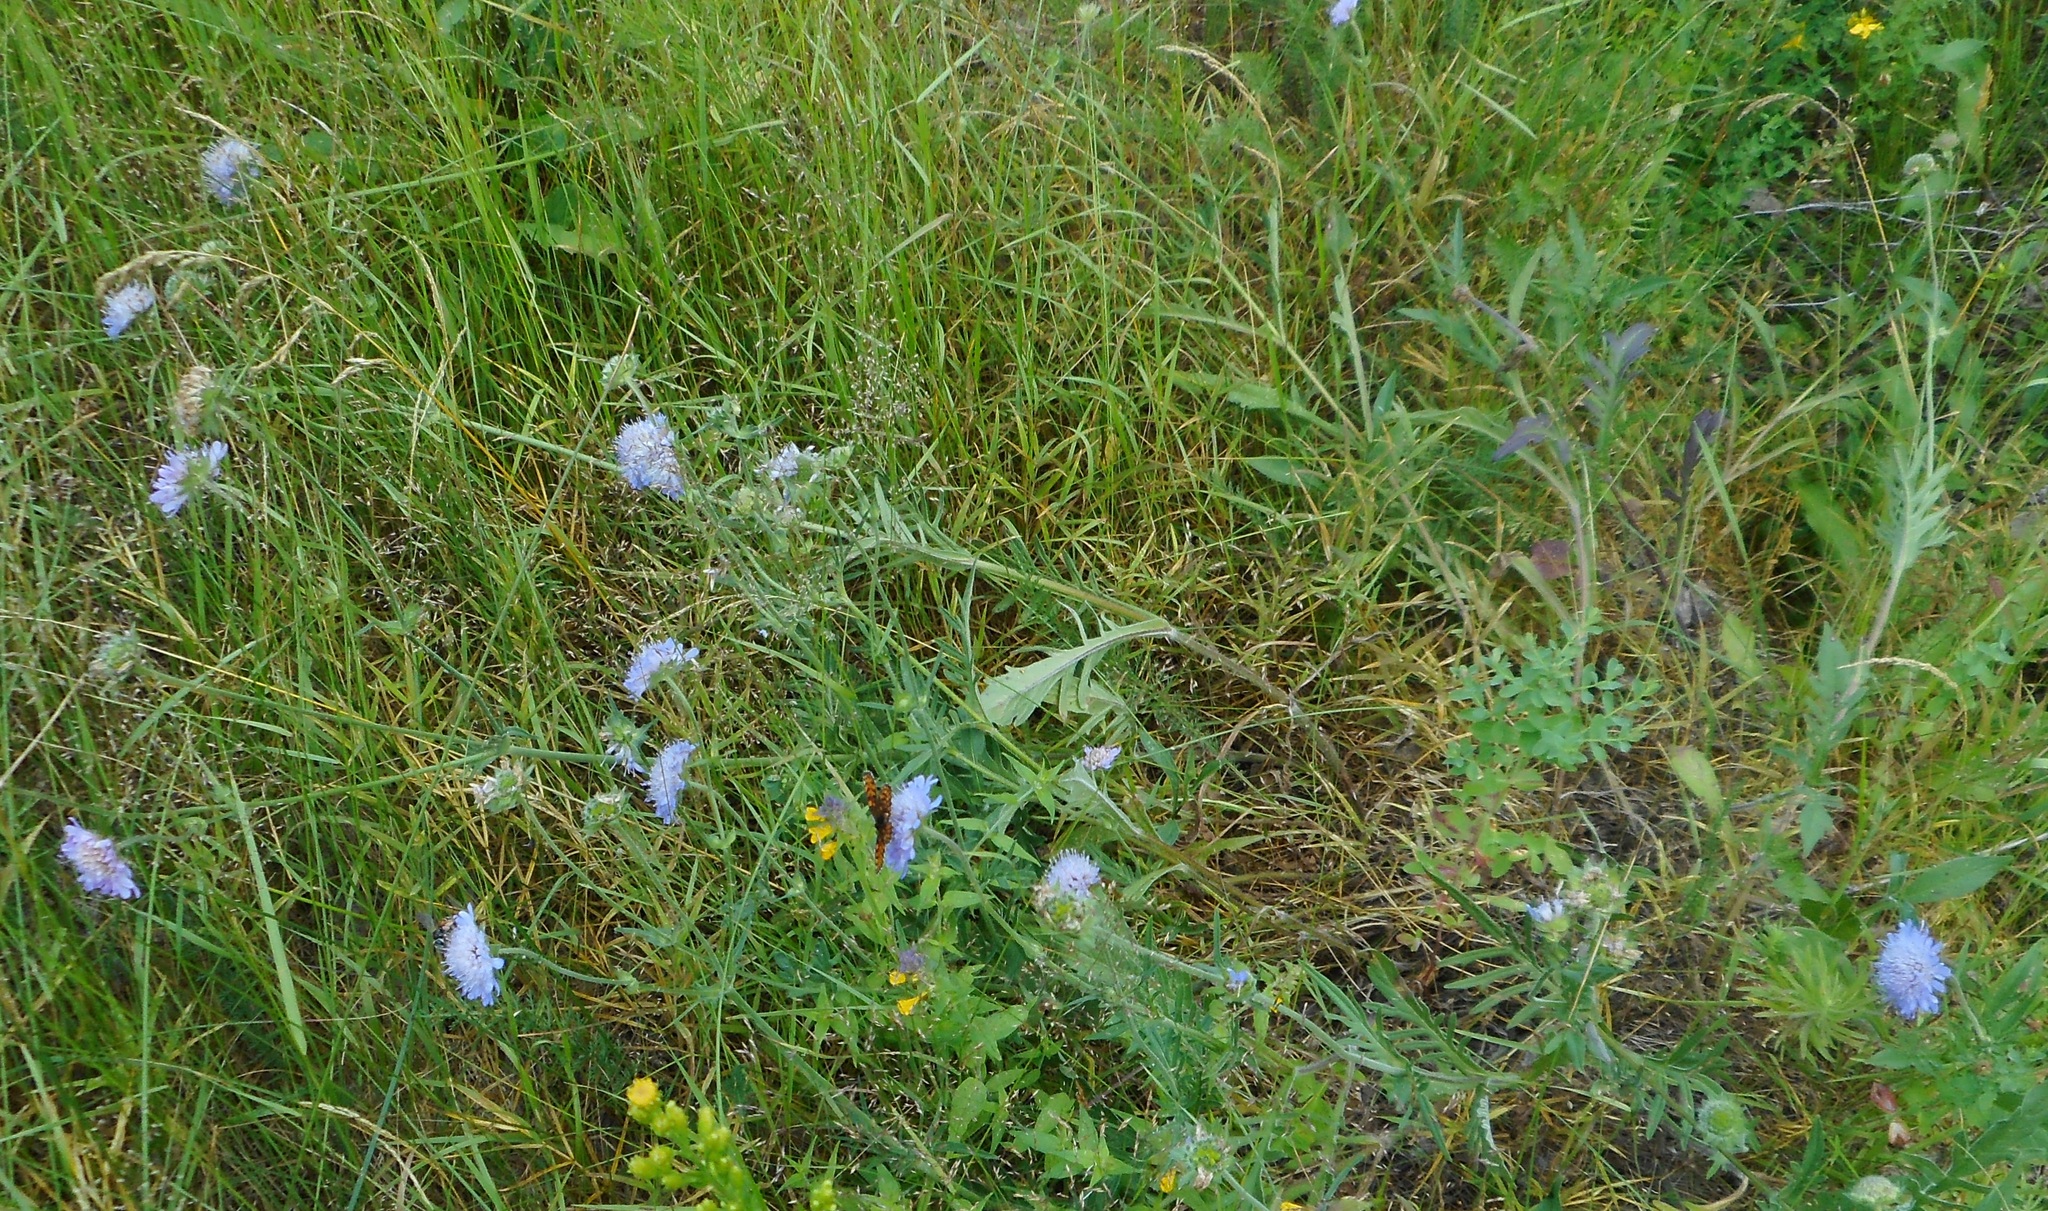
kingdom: Plantae
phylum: Tracheophyta
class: Magnoliopsida
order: Dipsacales
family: Caprifoliaceae
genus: Knautia
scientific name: Knautia arvensis
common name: Field scabiosa
